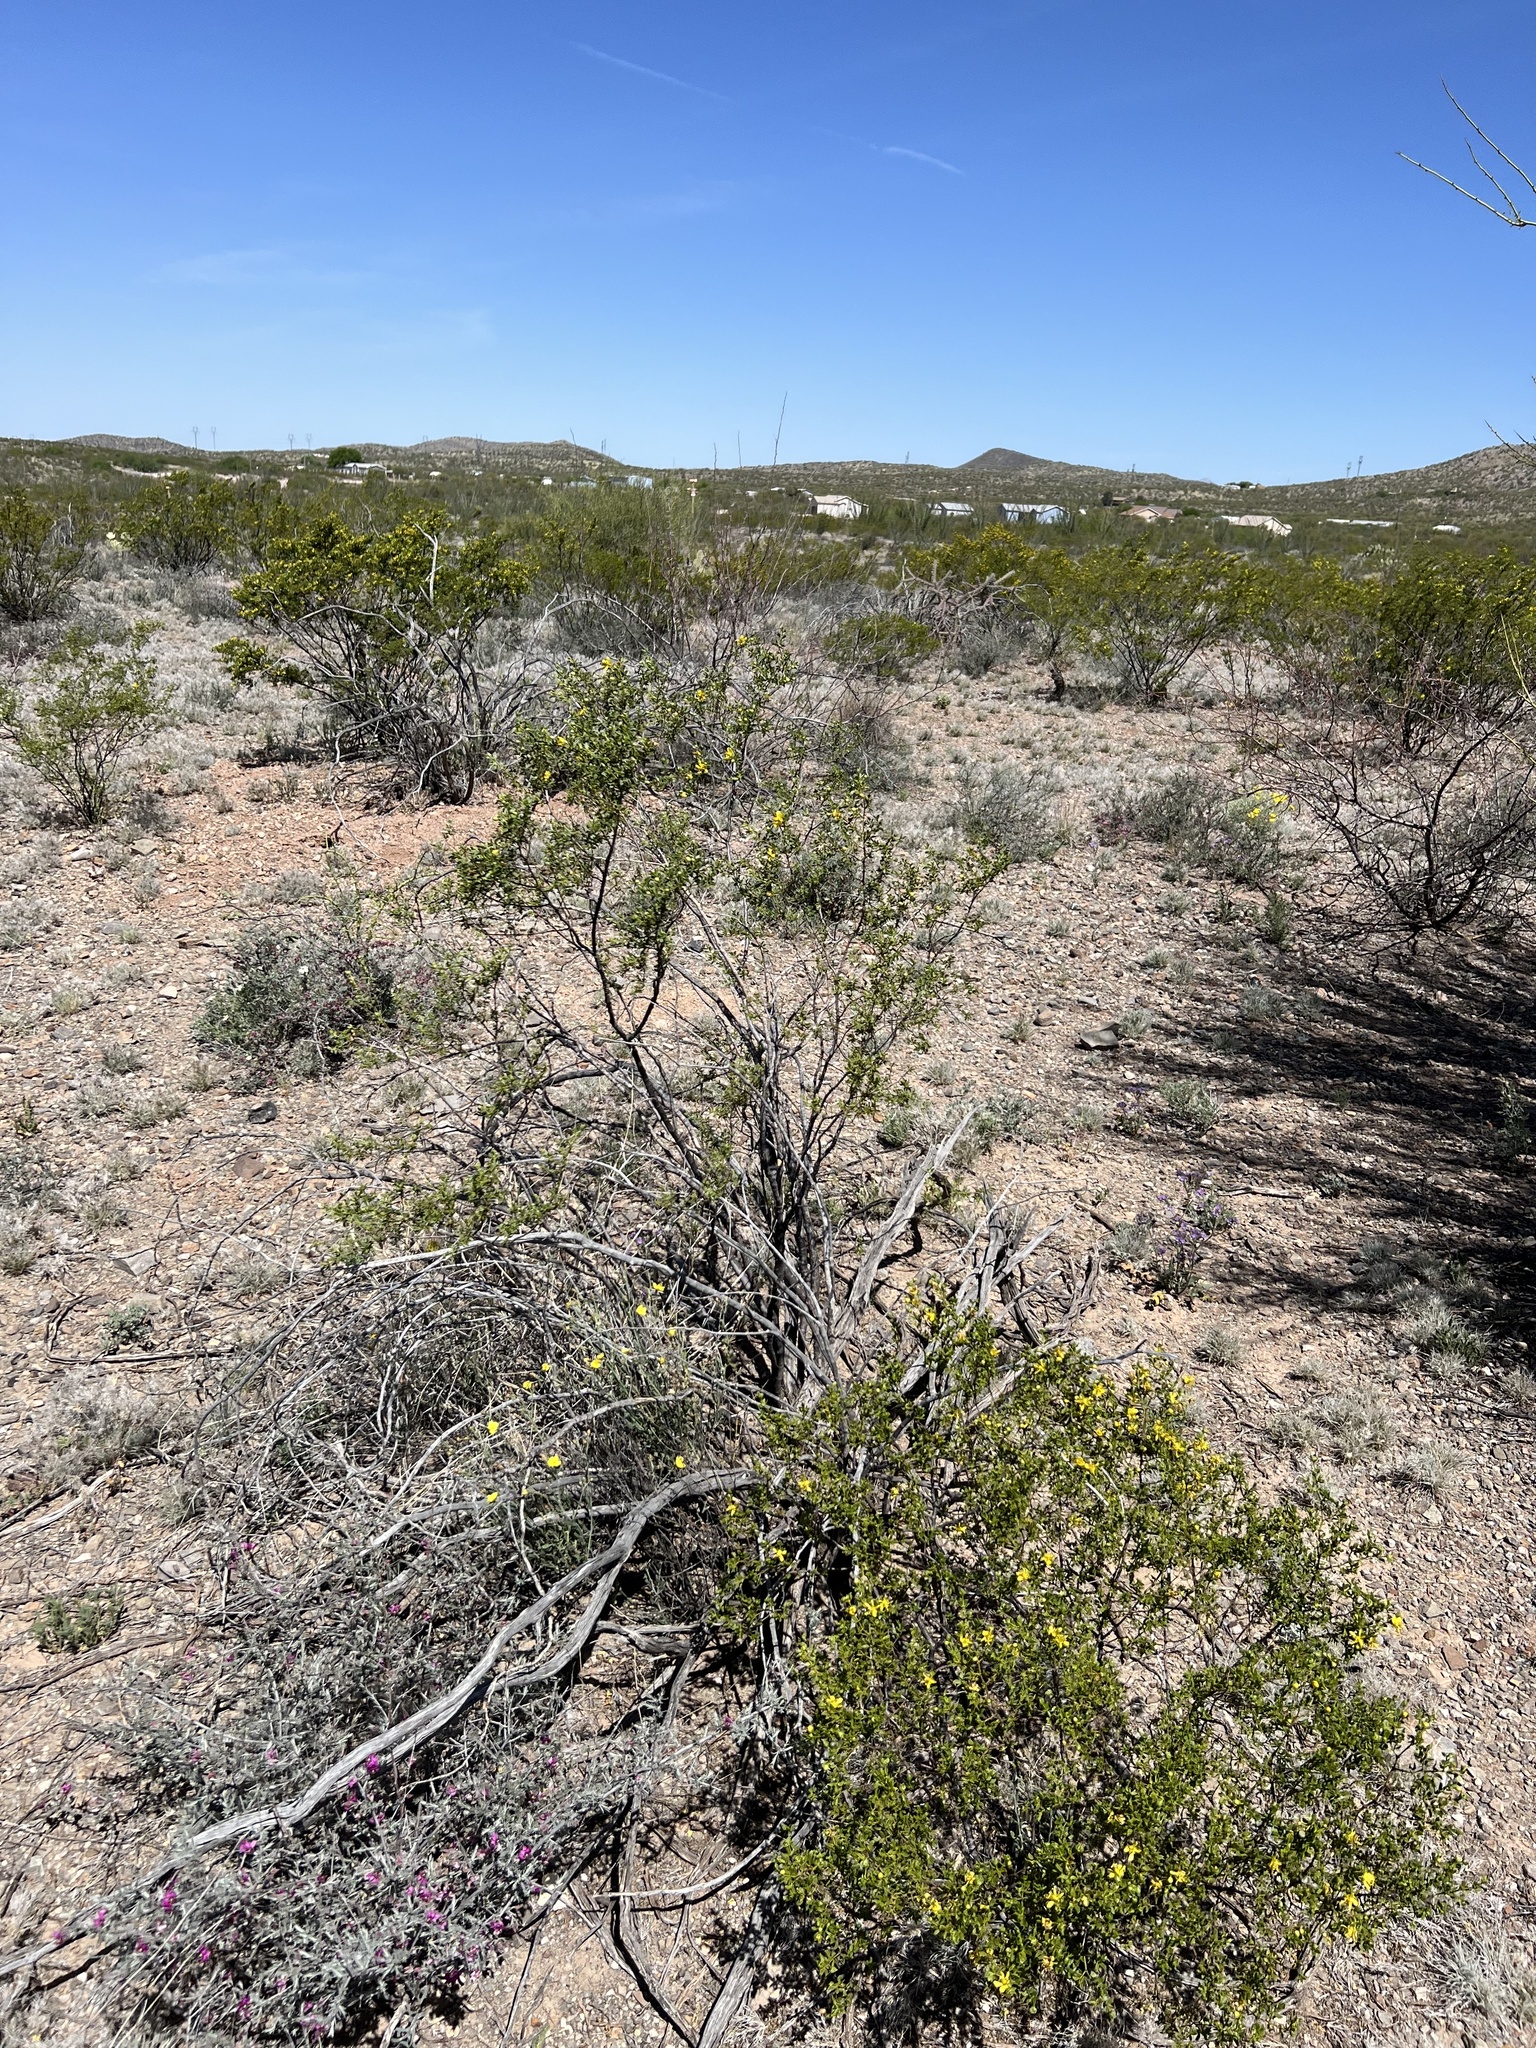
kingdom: Plantae
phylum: Tracheophyta
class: Magnoliopsida
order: Zygophyllales
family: Zygophyllaceae
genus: Larrea
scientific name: Larrea tridentata
